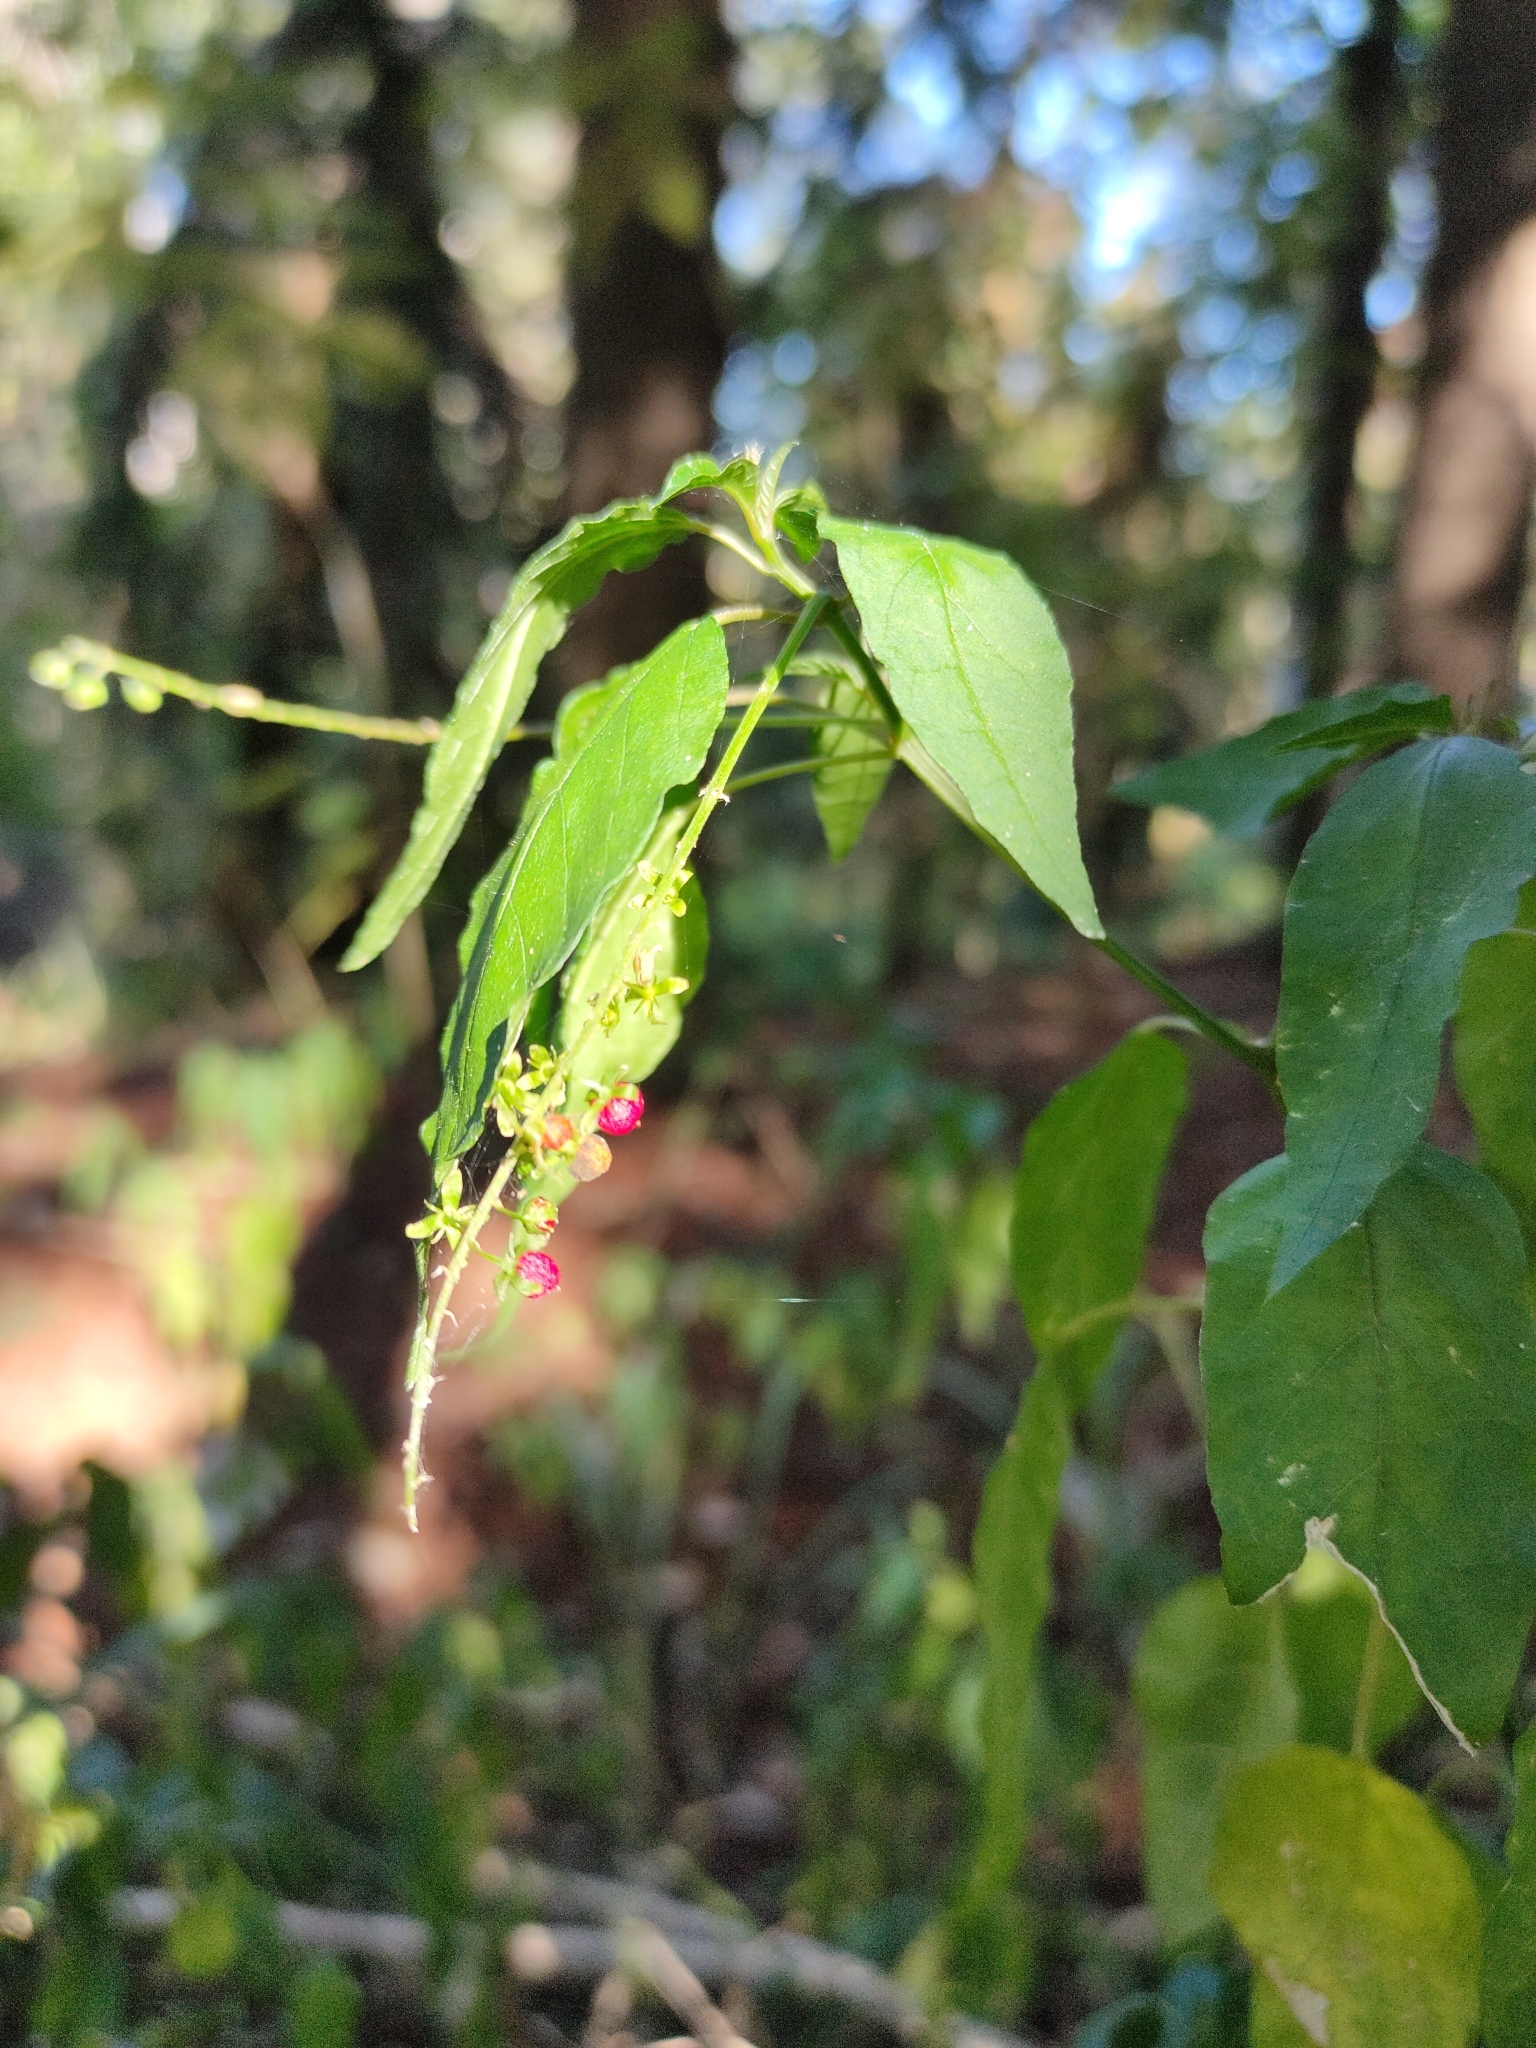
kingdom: Plantae
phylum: Tracheophyta
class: Magnoliopsida
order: Caryophyllales
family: Phytolaccaceae
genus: Rivina
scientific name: Rivina humilis
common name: Rougeplant
